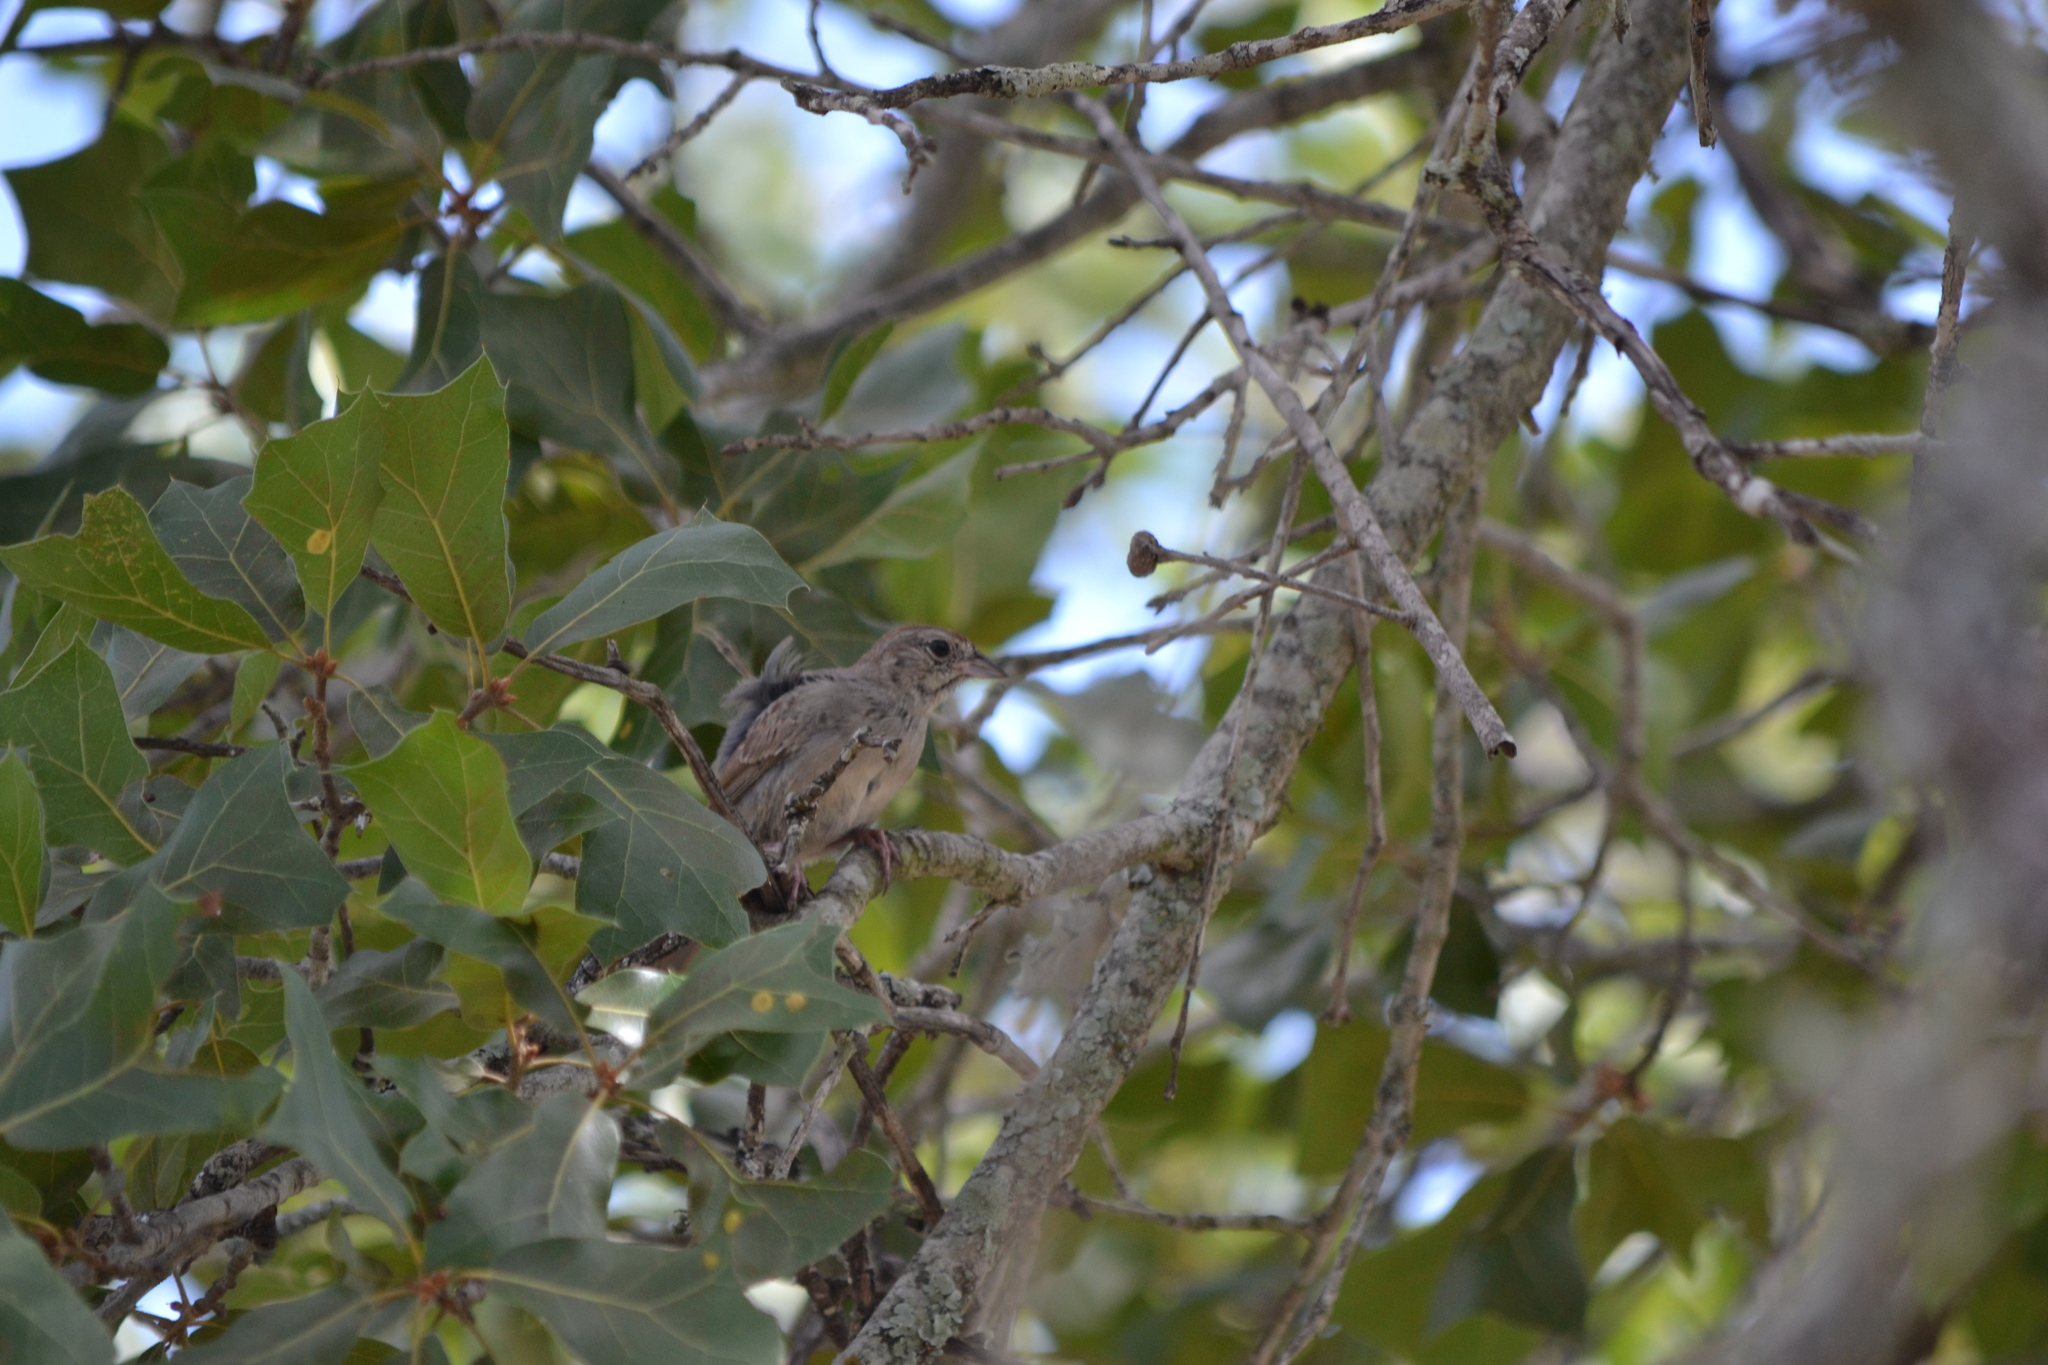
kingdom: Animalia
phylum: Chordata
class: Aves
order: Passeriformes
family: Passerellidae
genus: Aimophila
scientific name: Aimophila ruficeps
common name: Rufous-crowned sparrow
